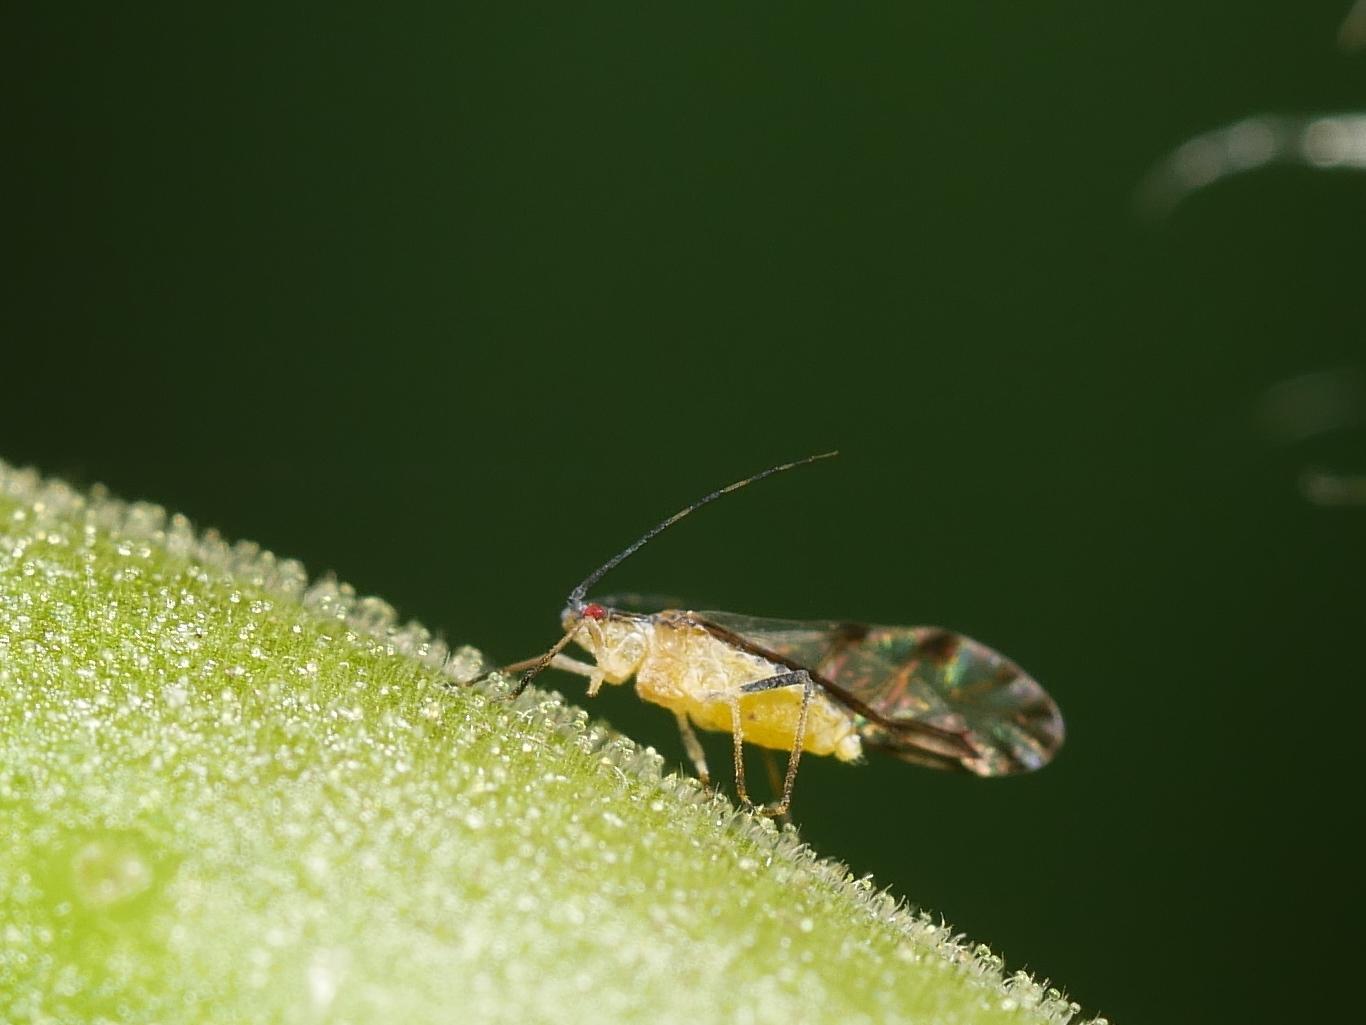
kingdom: Animalia
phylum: Arthropoda
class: Insecta
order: Hemiptera
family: Aphididae
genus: Eucallipterus
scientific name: Eucallipterus tiliae
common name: Aphid
